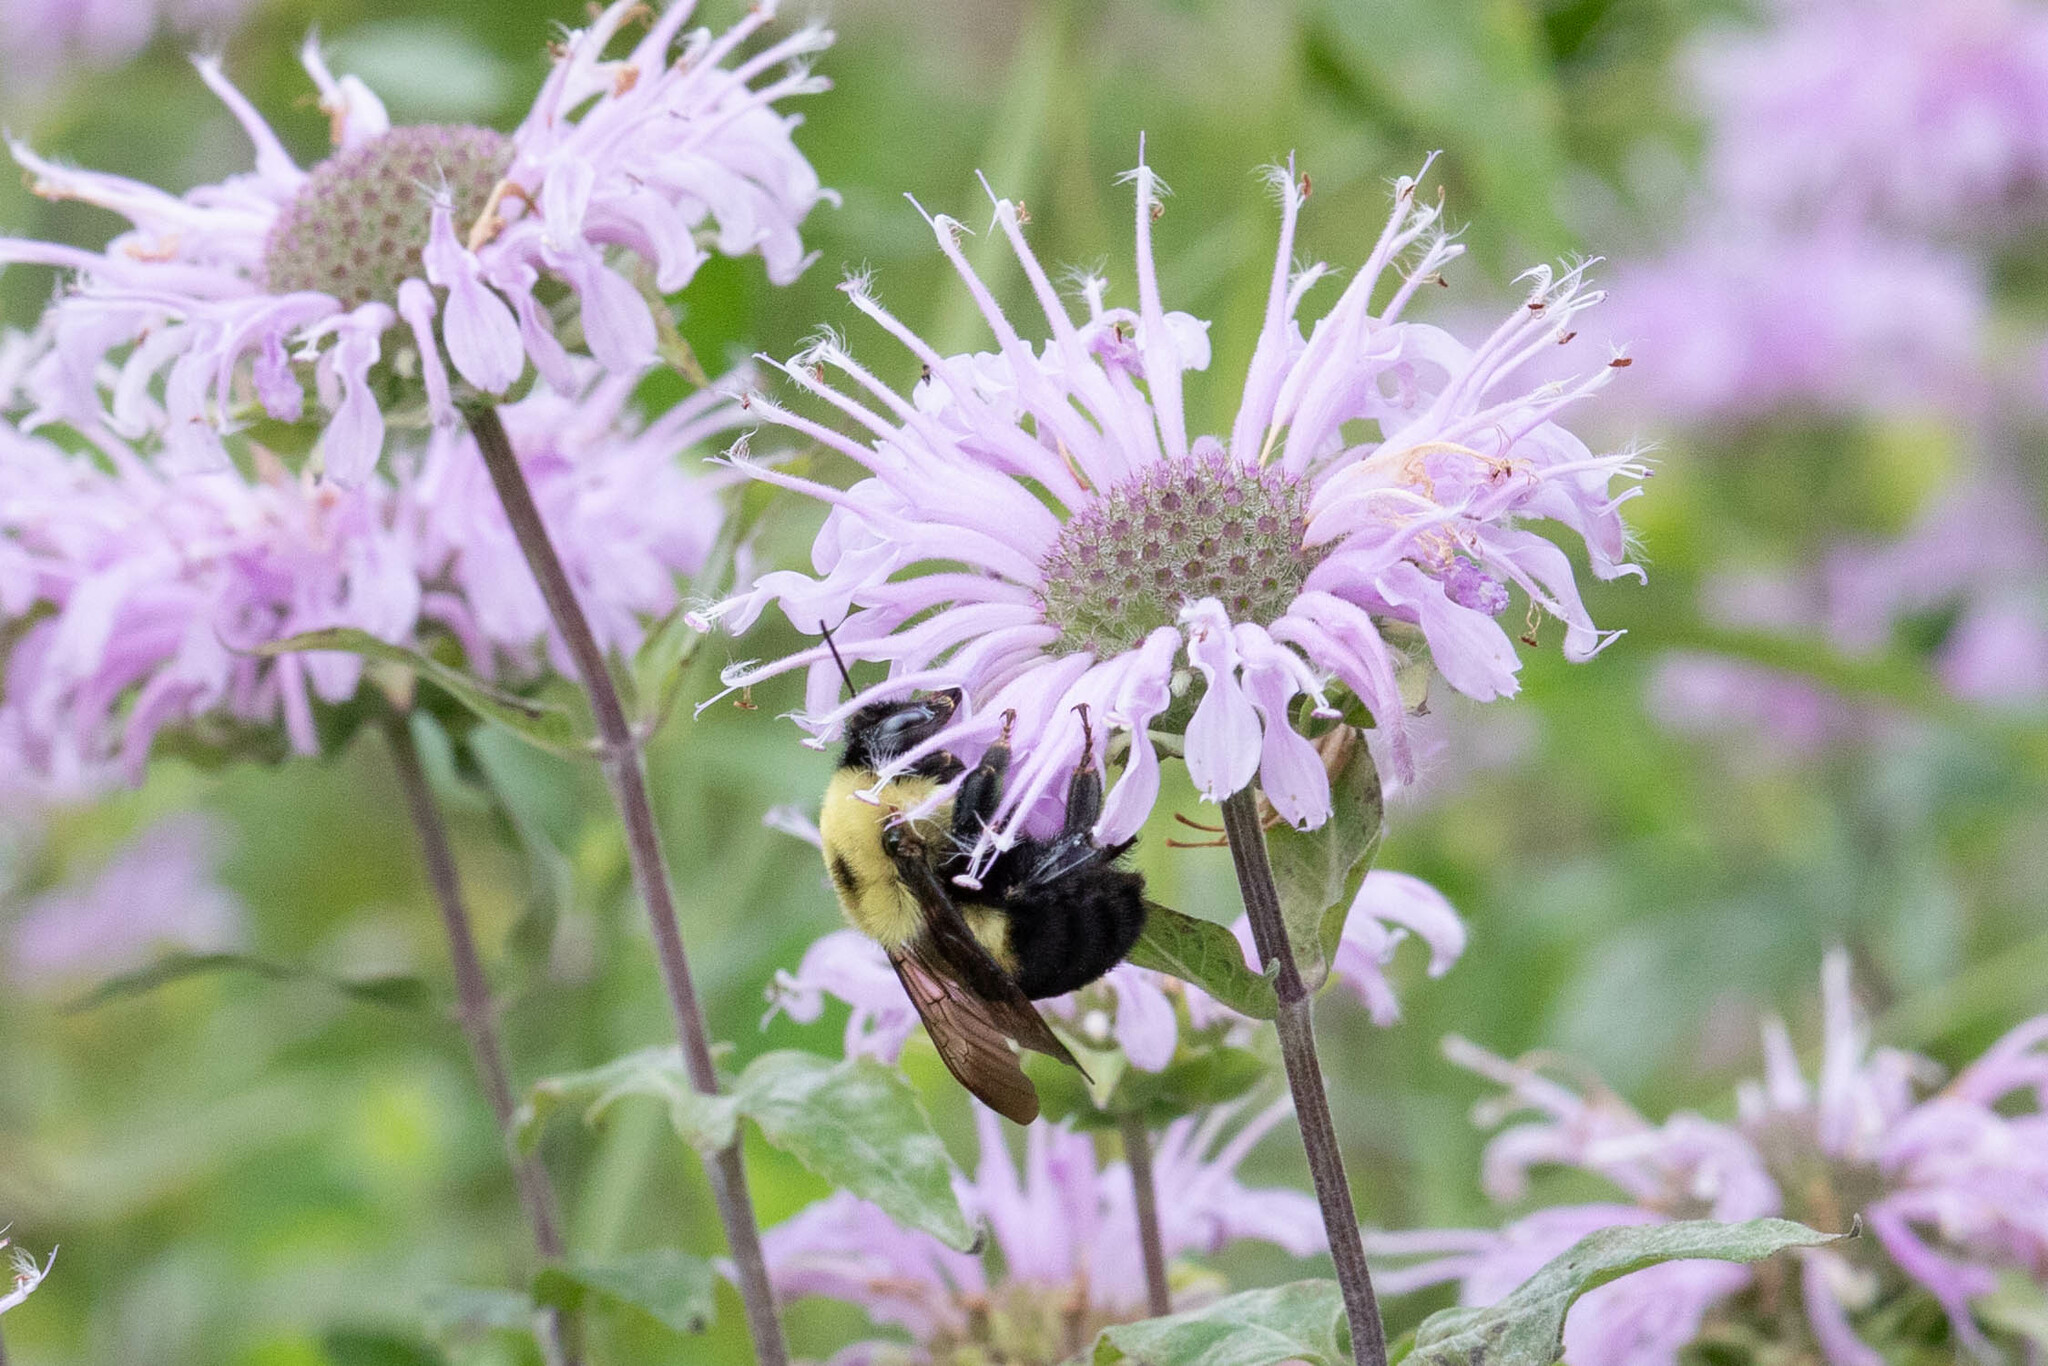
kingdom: Animalia
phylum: Arthropoda
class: Insecta
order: Hymenoptera
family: Apidae
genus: Bombus
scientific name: Bombus griseocollis
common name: Brown-belted bumble bee
